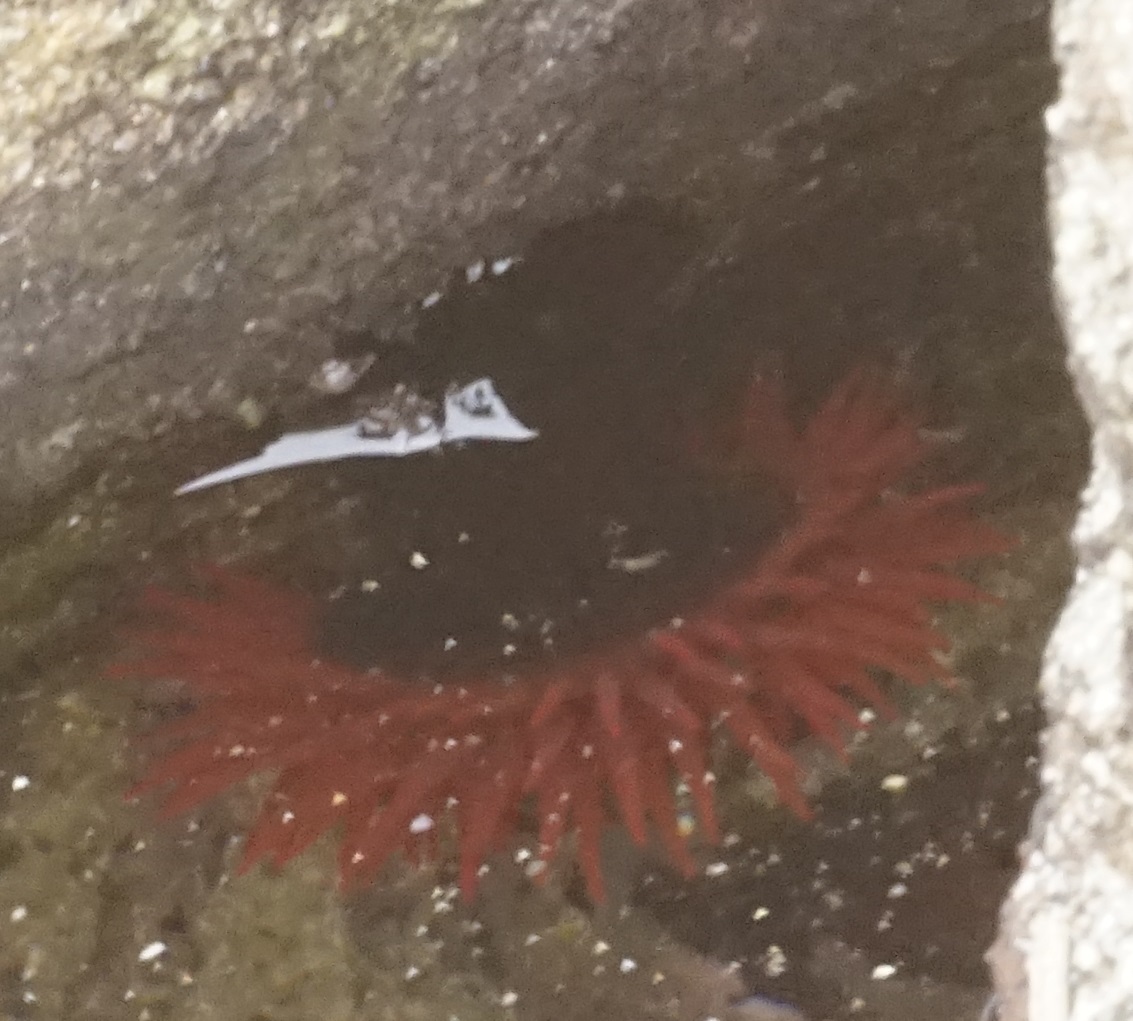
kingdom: Animalia
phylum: Cnidaria
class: Anthozoa
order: Actiniaria
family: Actiniidae
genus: Actinia
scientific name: Actinia tenebrosa
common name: Waratah anemone
